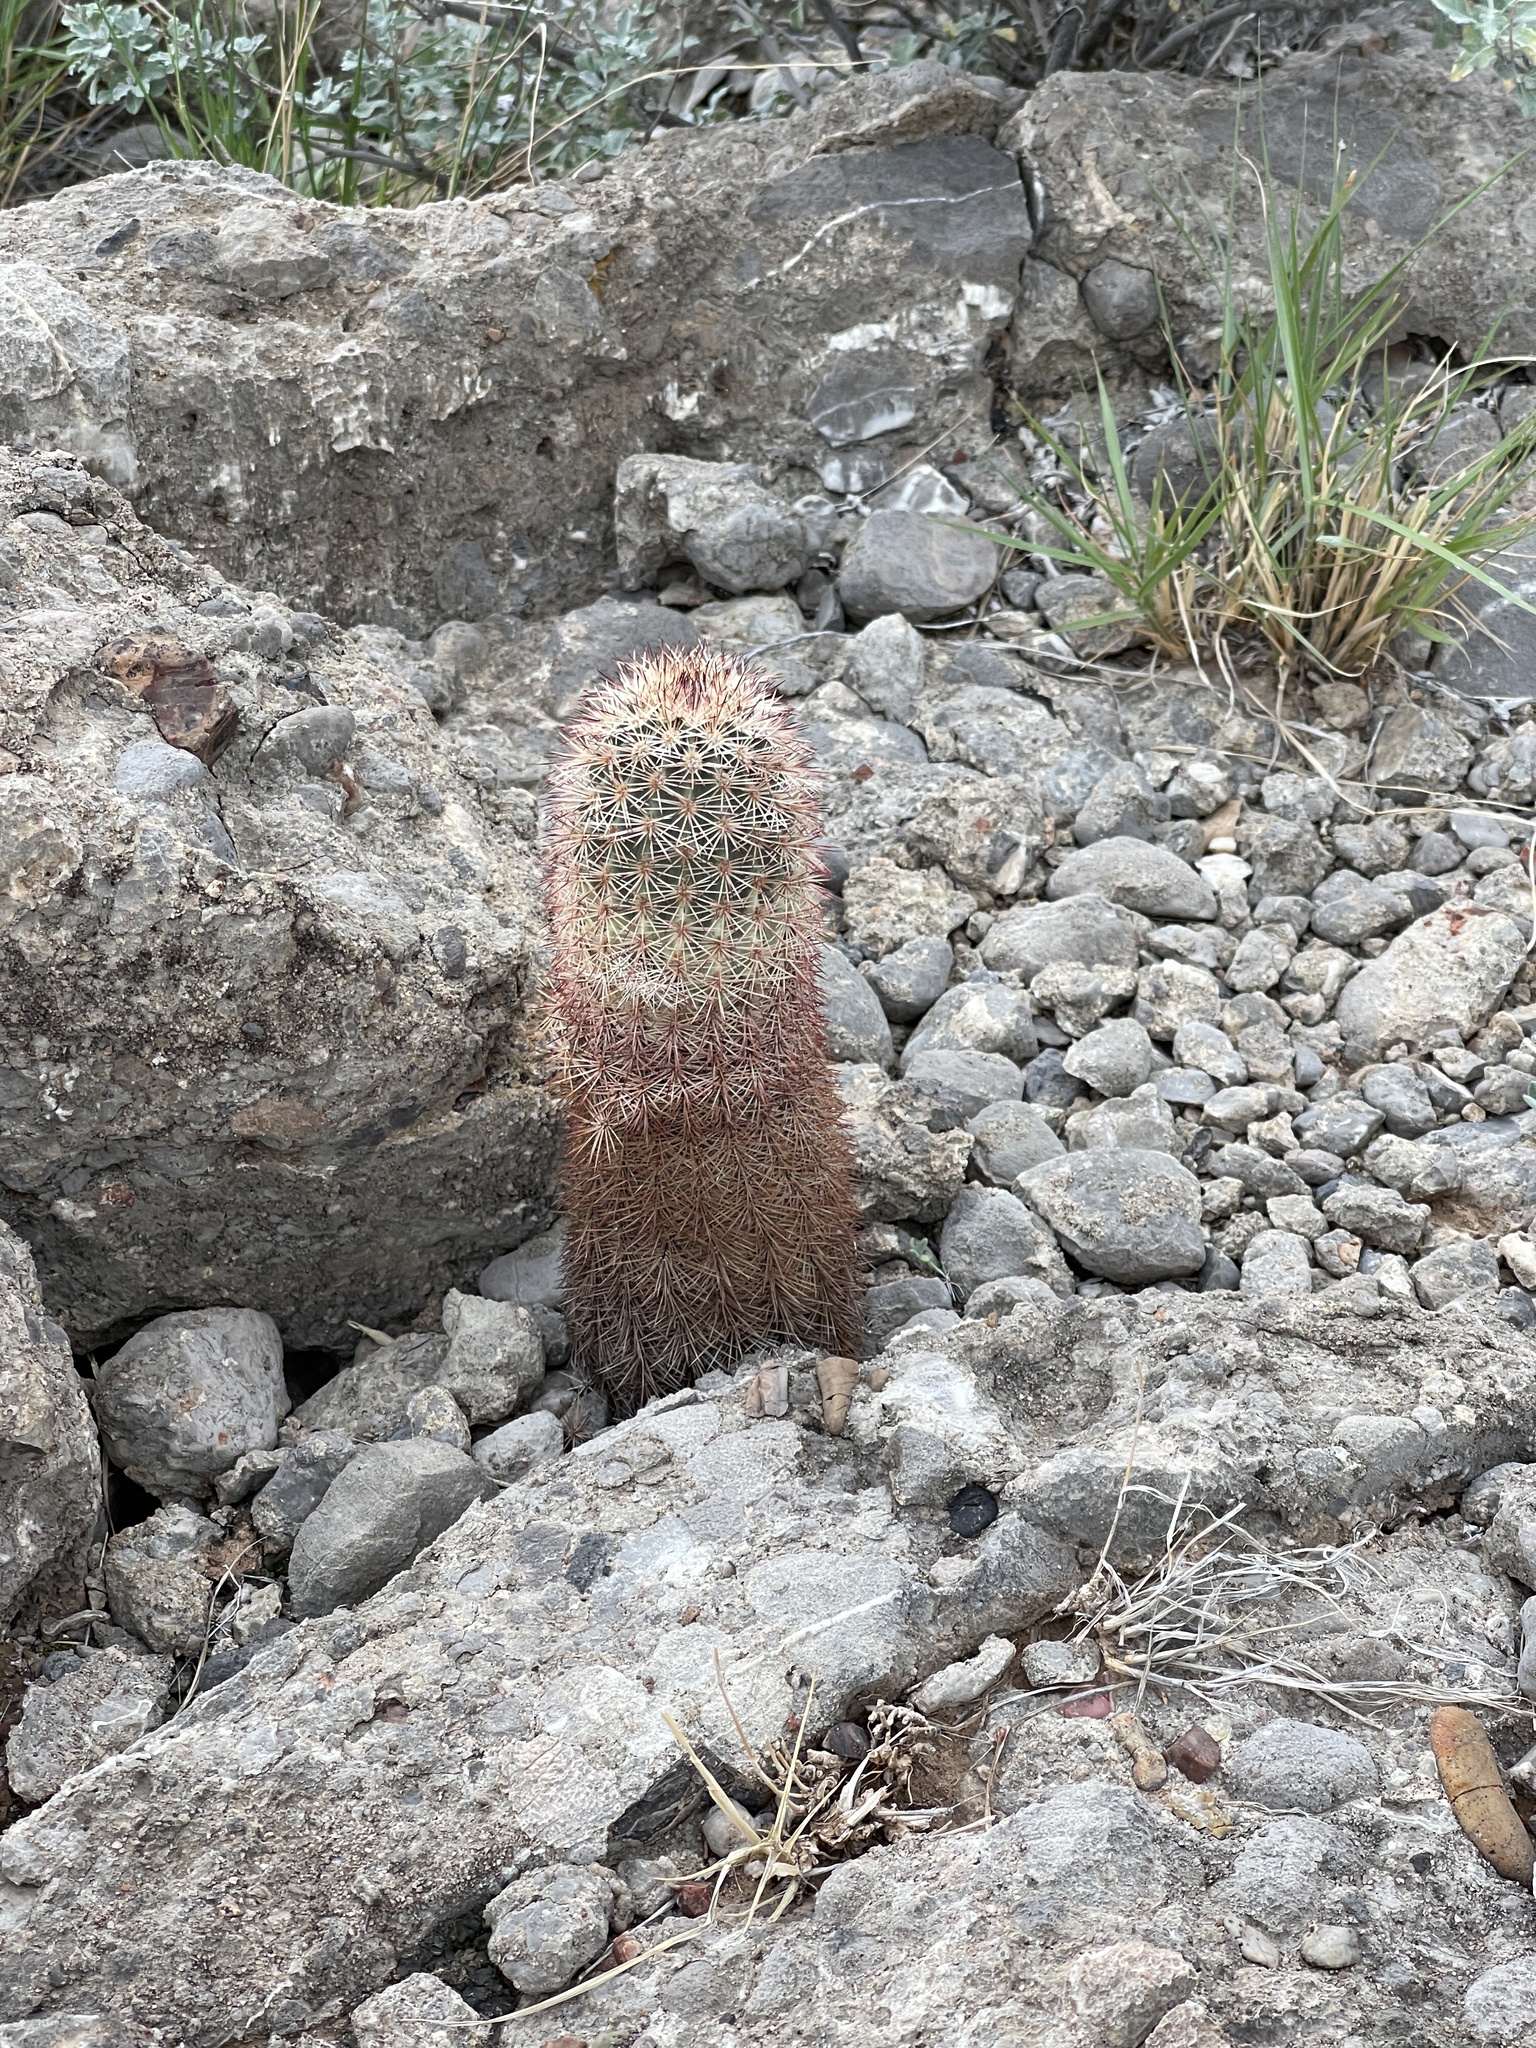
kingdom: Plantae
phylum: Tracheophyta
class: Magnoliopsida
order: Caryophyllales
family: Cactaceae
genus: Echinocereus
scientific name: Echinocereus dasyacanthus
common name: Spiny hedgehog cactus
